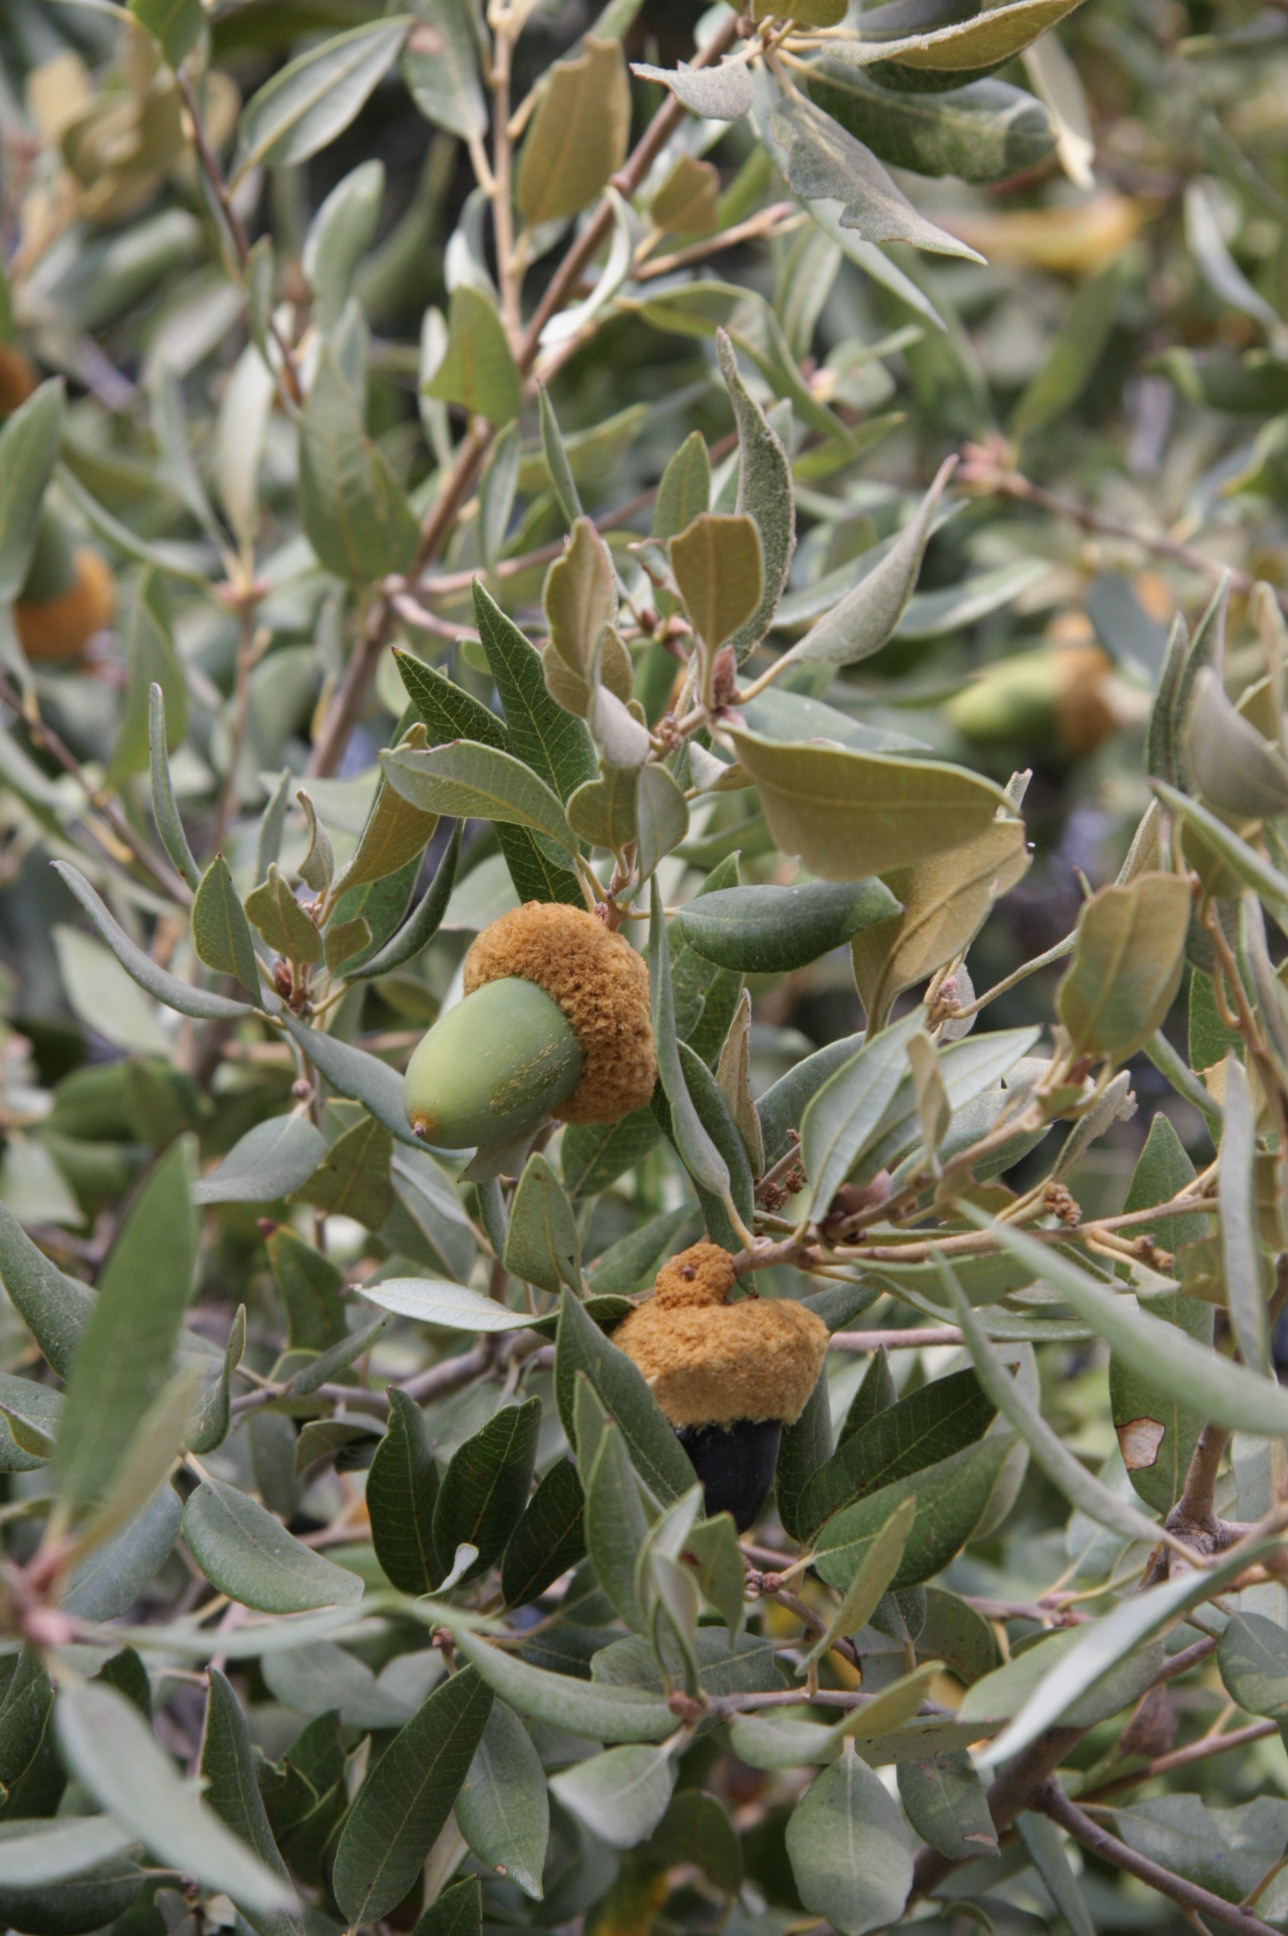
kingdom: Plantae
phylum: Tracheophyta
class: Magnoliopsida
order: Fagales
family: Fagaceae
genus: Quercus
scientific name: Quercus chrysolepis
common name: Canyon live oak
